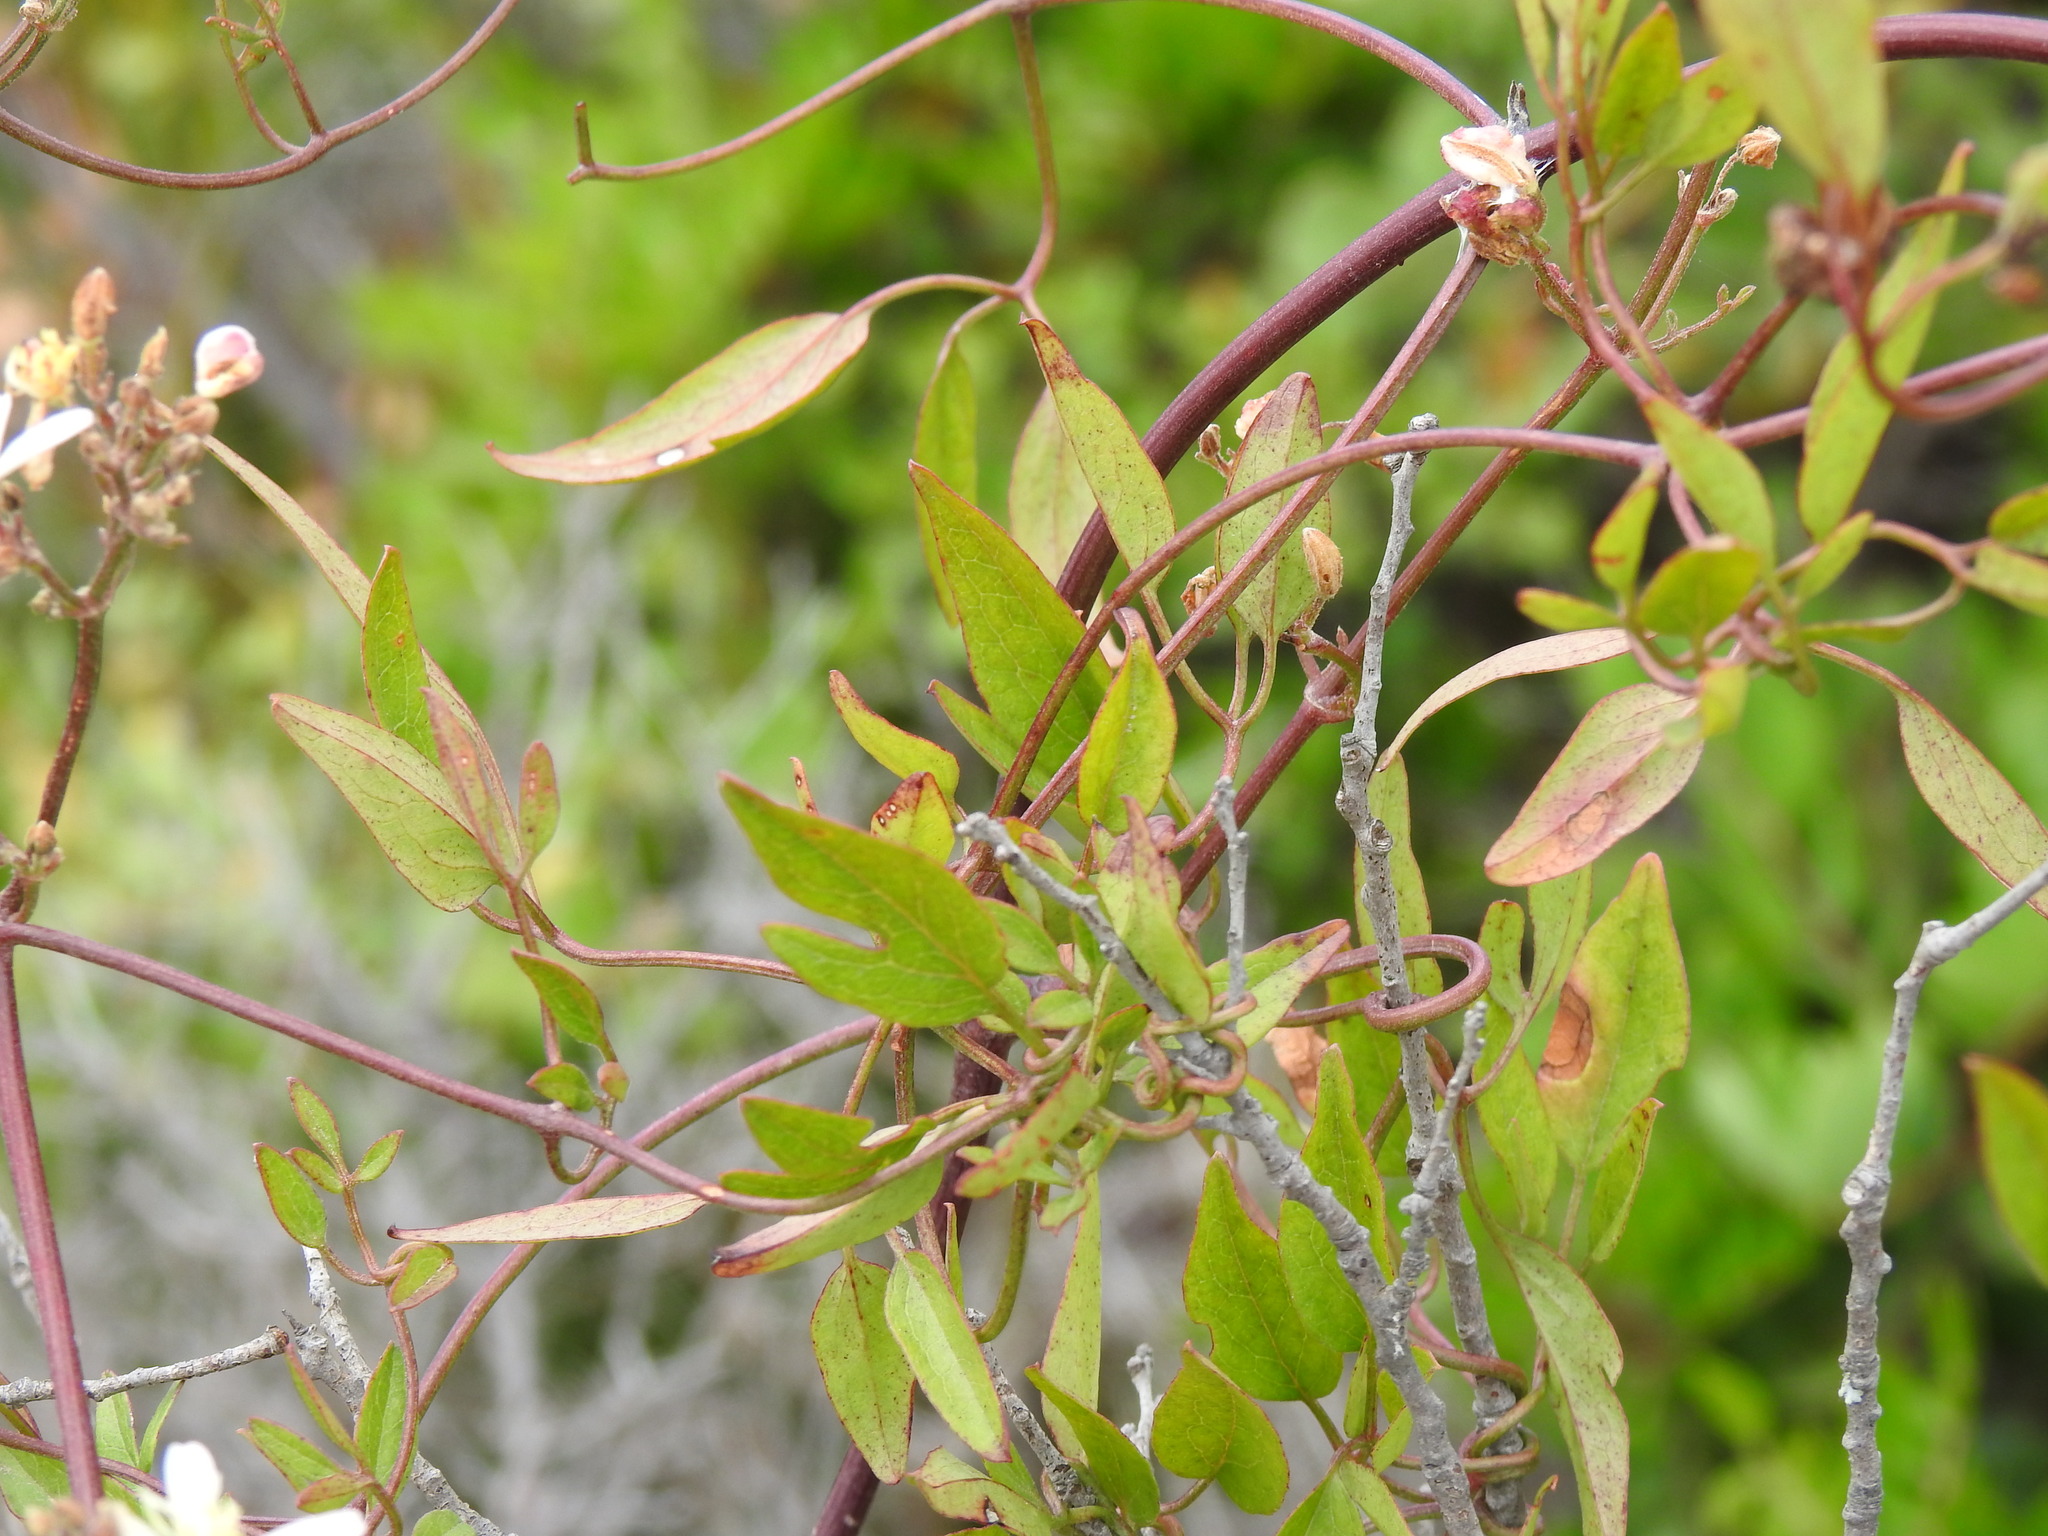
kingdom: Plantae
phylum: Tracheophyta
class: Magnoliopsida
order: Ranunculales
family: Ranunculaceae
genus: Clematis
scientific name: Clematis flammula
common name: Virgin's-bower
